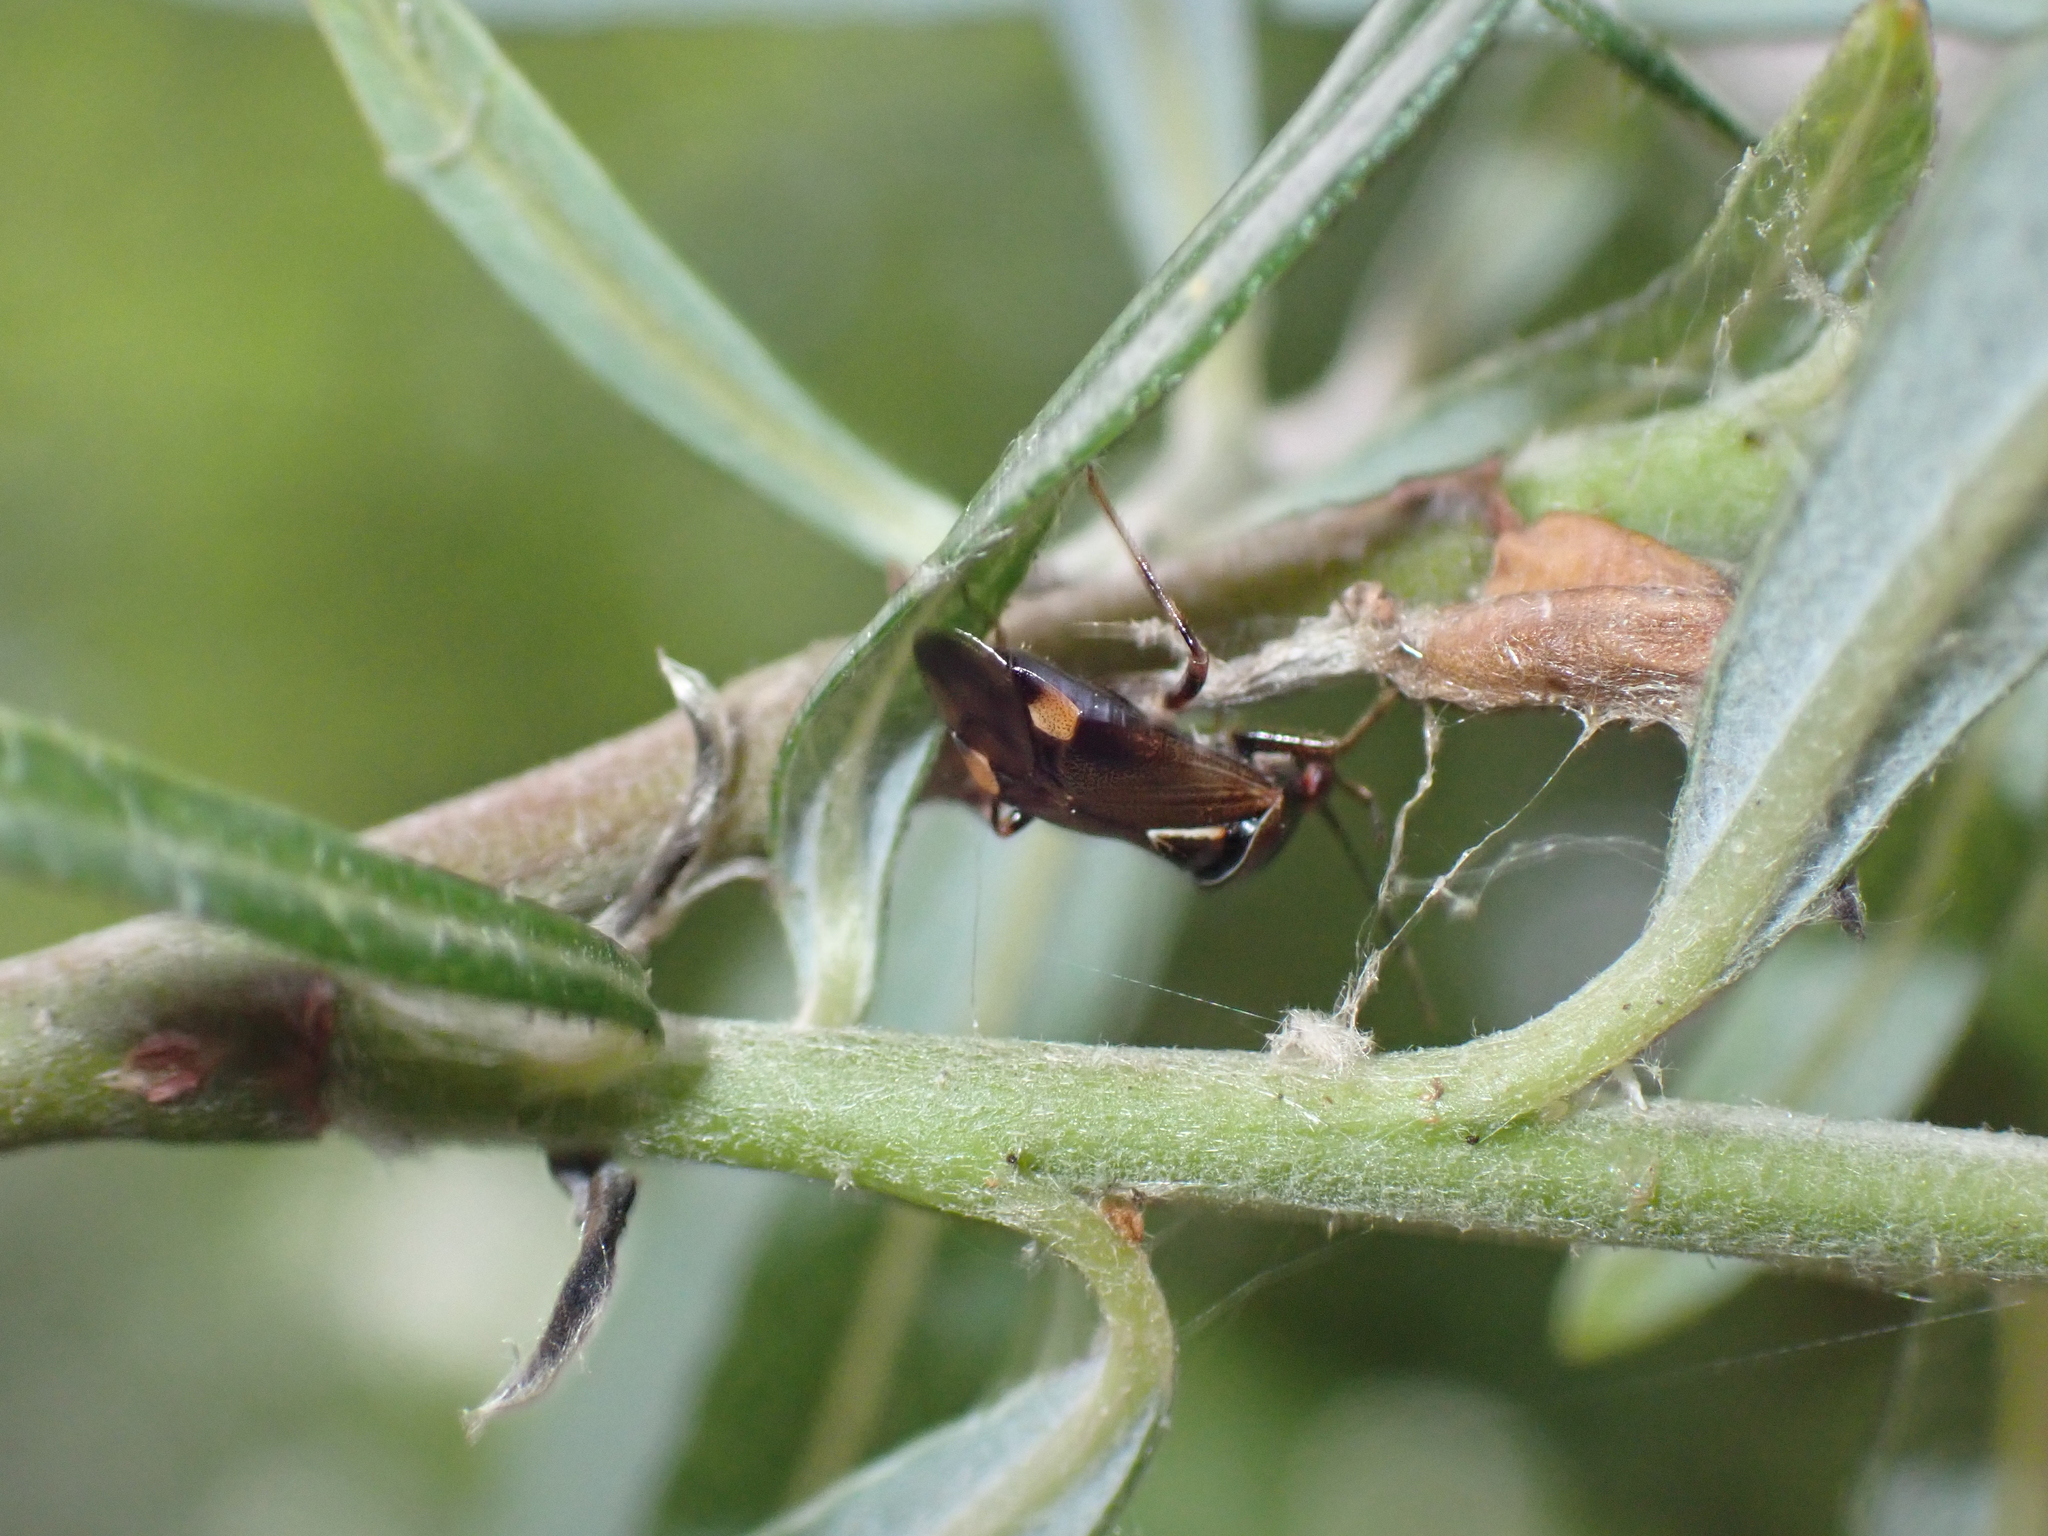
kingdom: Animalia
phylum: Arthropoda
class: Insecta
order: Hemiptera
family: Miridae
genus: Deraeocoris
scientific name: Deraeocoris flavilinea
